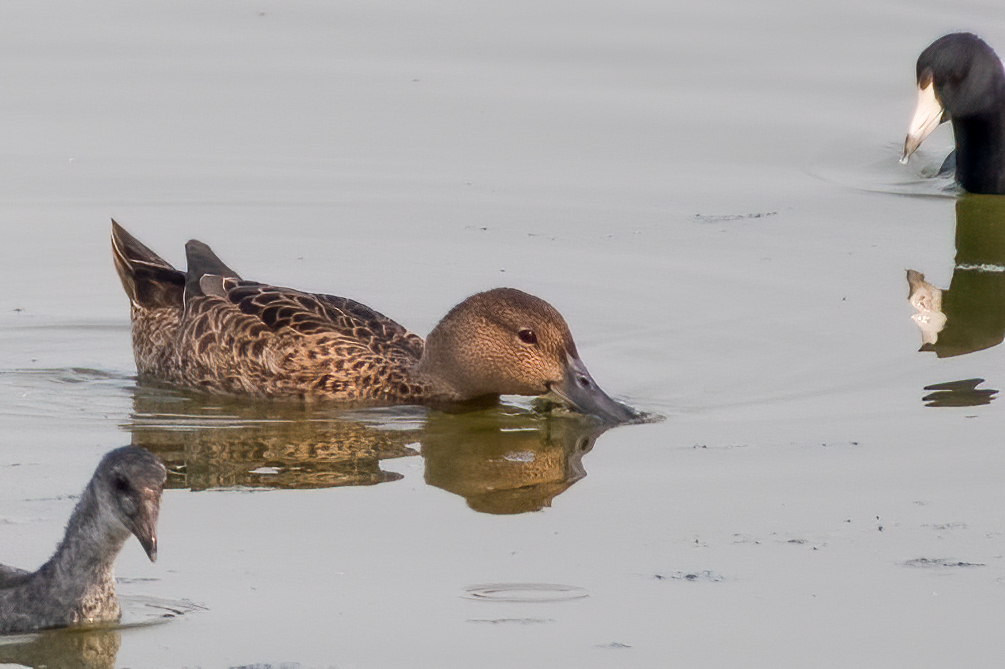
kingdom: Animalia
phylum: Chordata
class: Aves
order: Anseriformes
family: Anatidae
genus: Spatula
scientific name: Spatula cyanoptera
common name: Cinnamon teal
